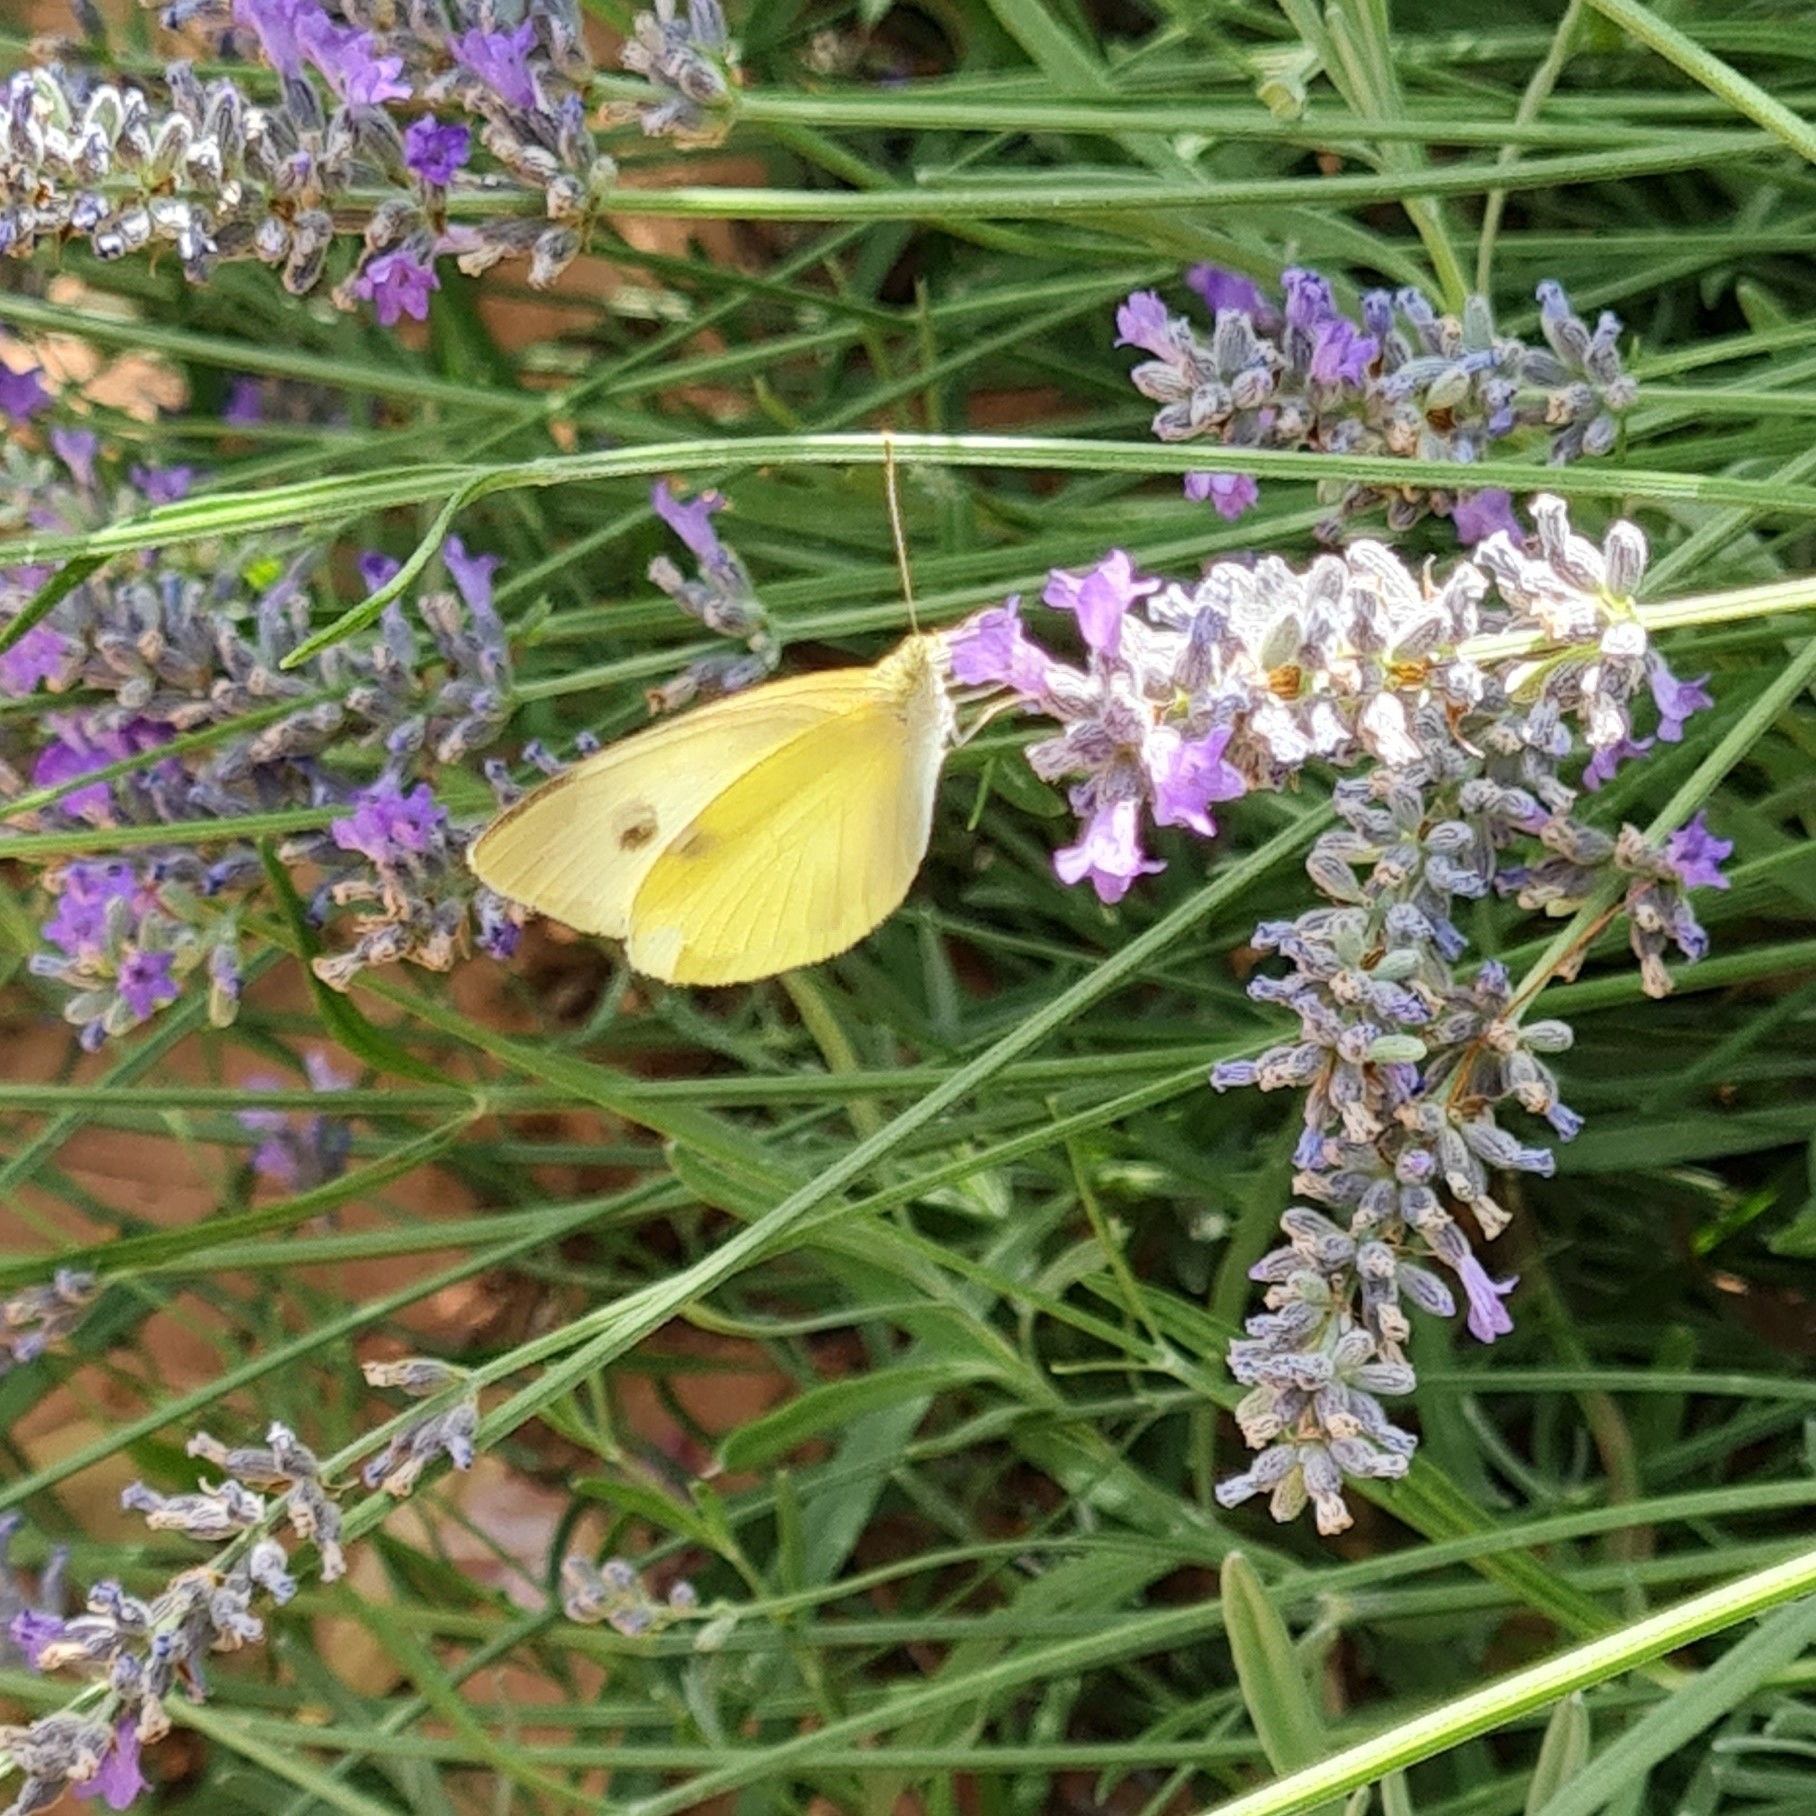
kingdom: Animalia
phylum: Arthropoda
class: Insecta
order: Lepidoptera
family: Pieridae
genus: Pieris
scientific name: Pieris rapae
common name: Small white
